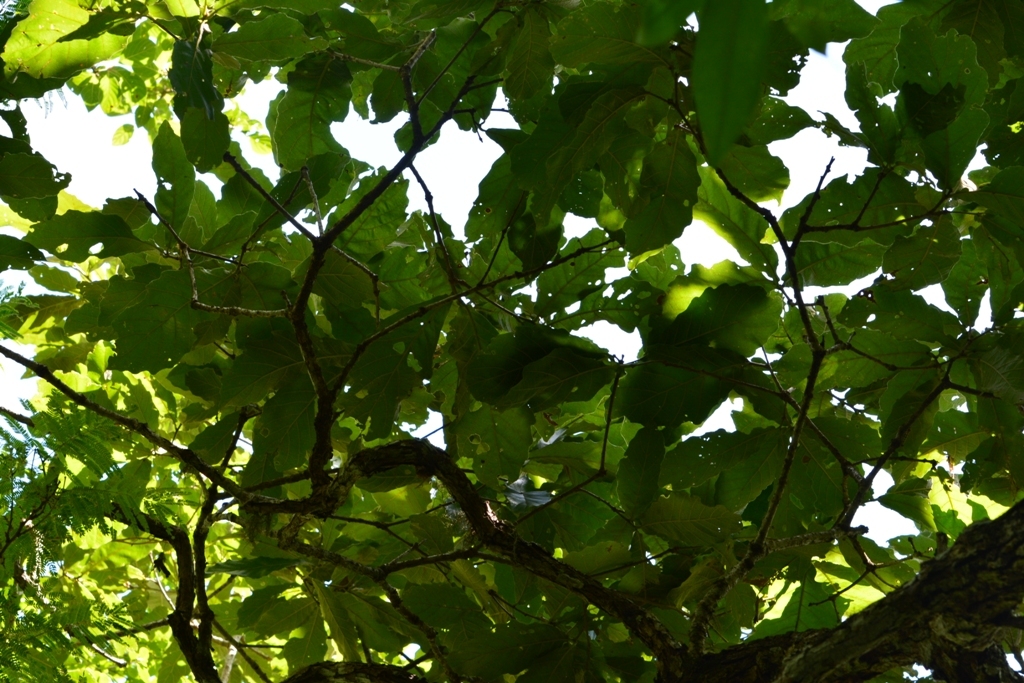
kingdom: Plantae
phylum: Tracheophyta
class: Magnoliopsida
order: Fagales
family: Fagaceae
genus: Quercus
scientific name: Quercus segoviensis
